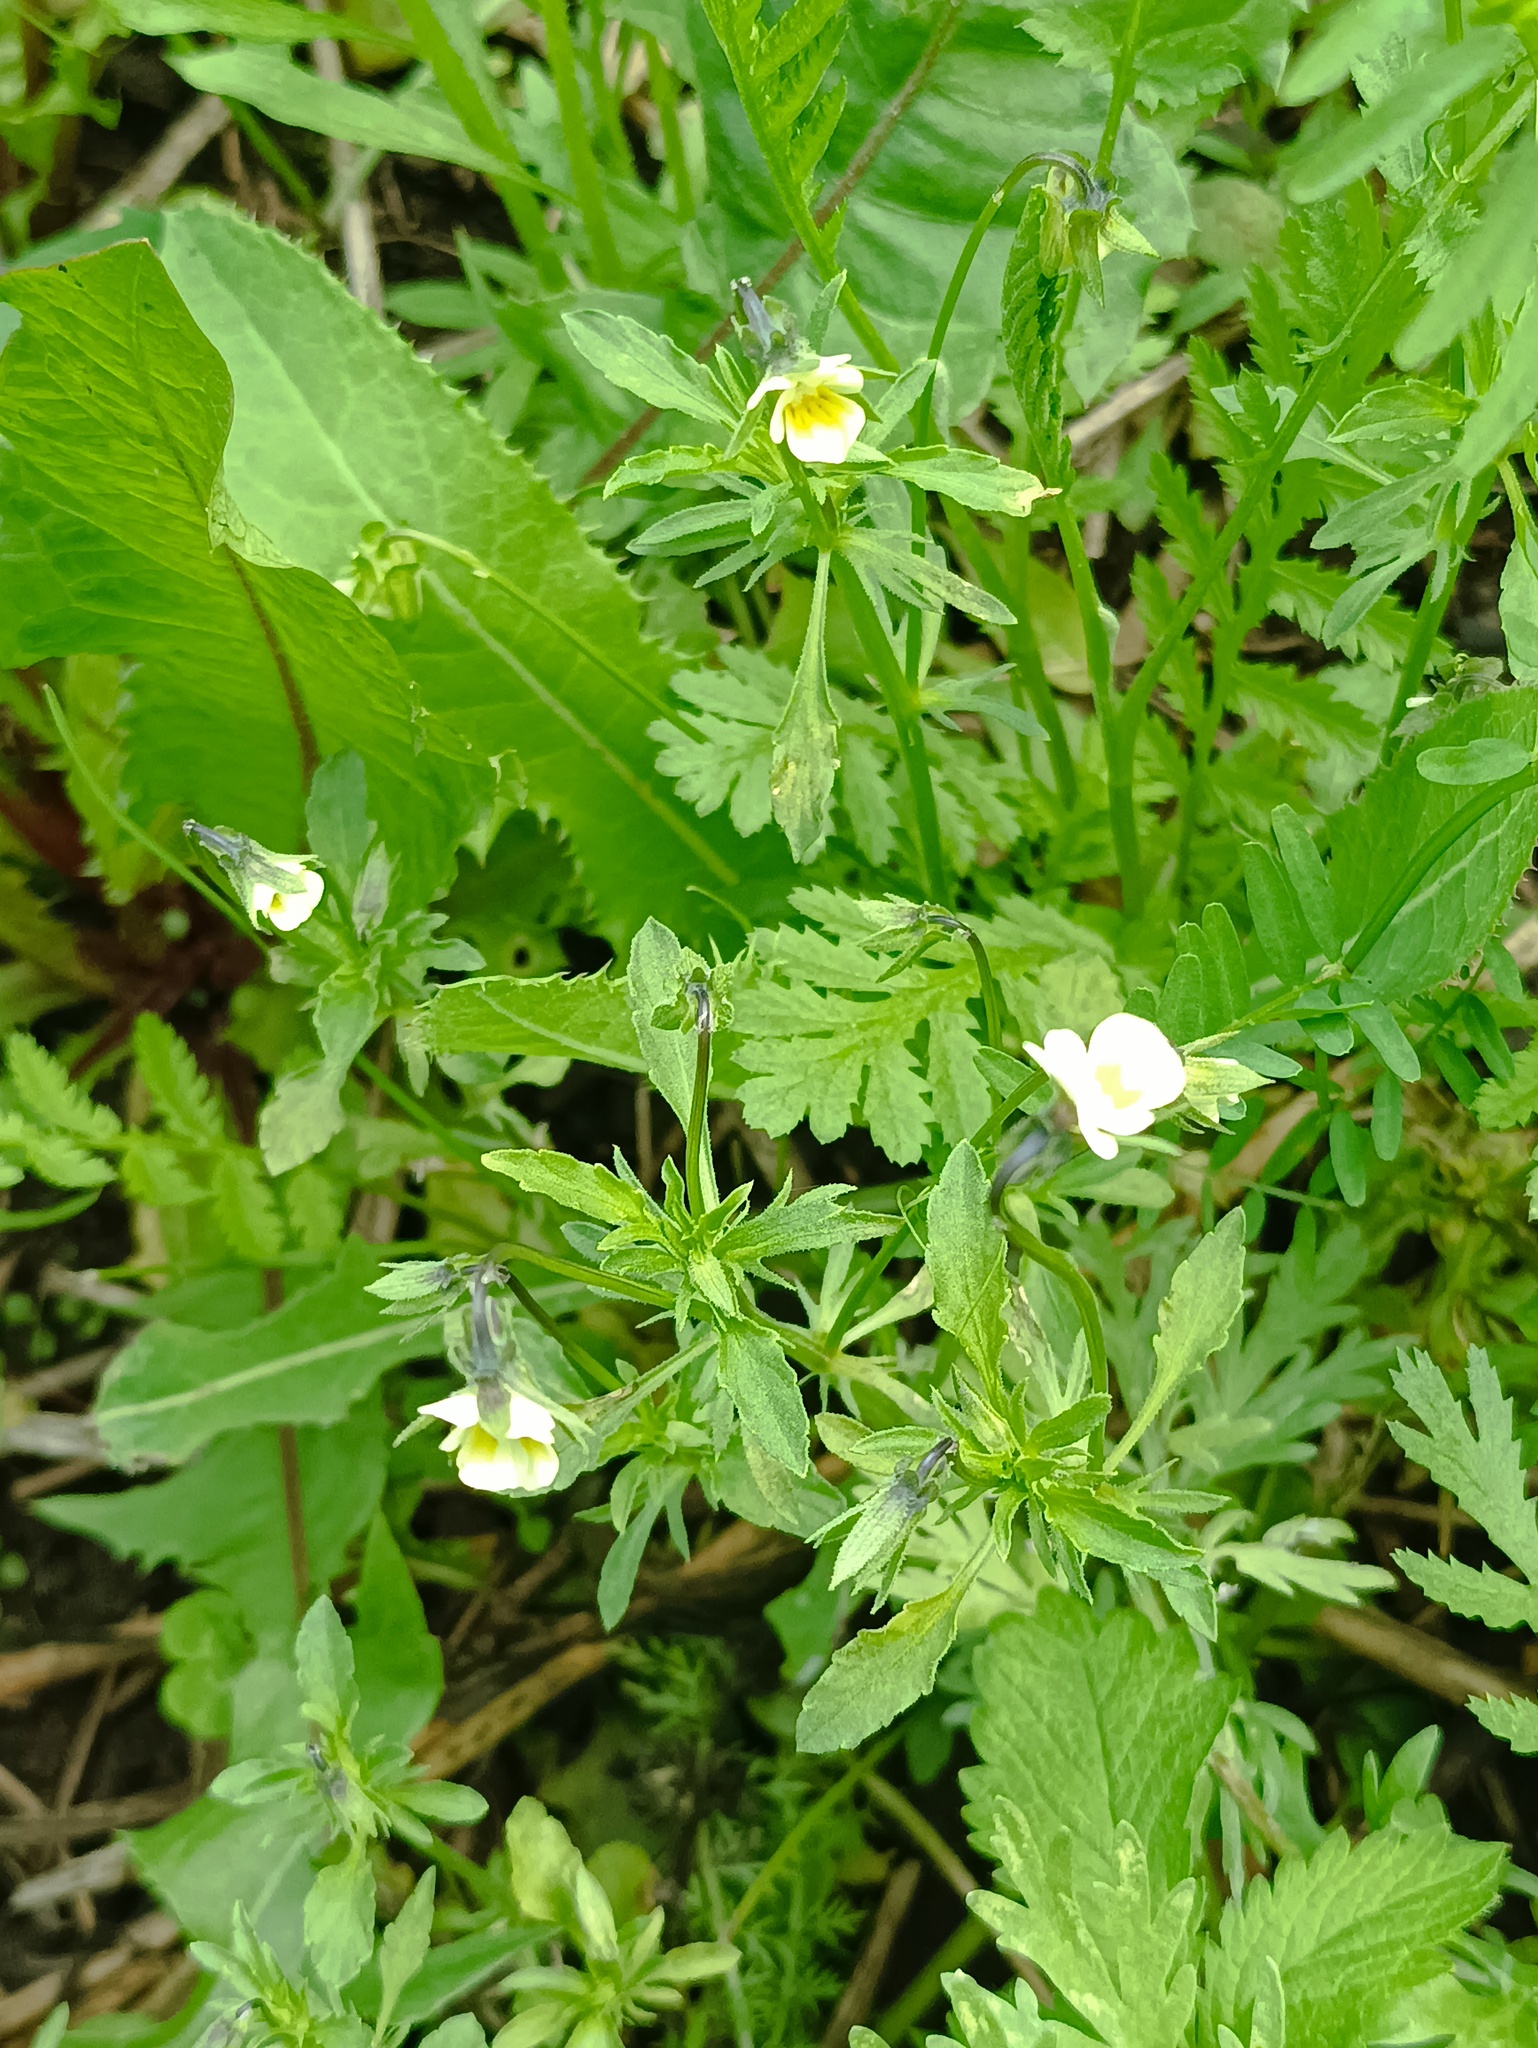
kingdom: Plantae
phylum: Tracheophyta
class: Magnoliopsida
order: Malpighiales
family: Violaceae
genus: Viola
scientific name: Viola arvensis
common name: Field pansy
